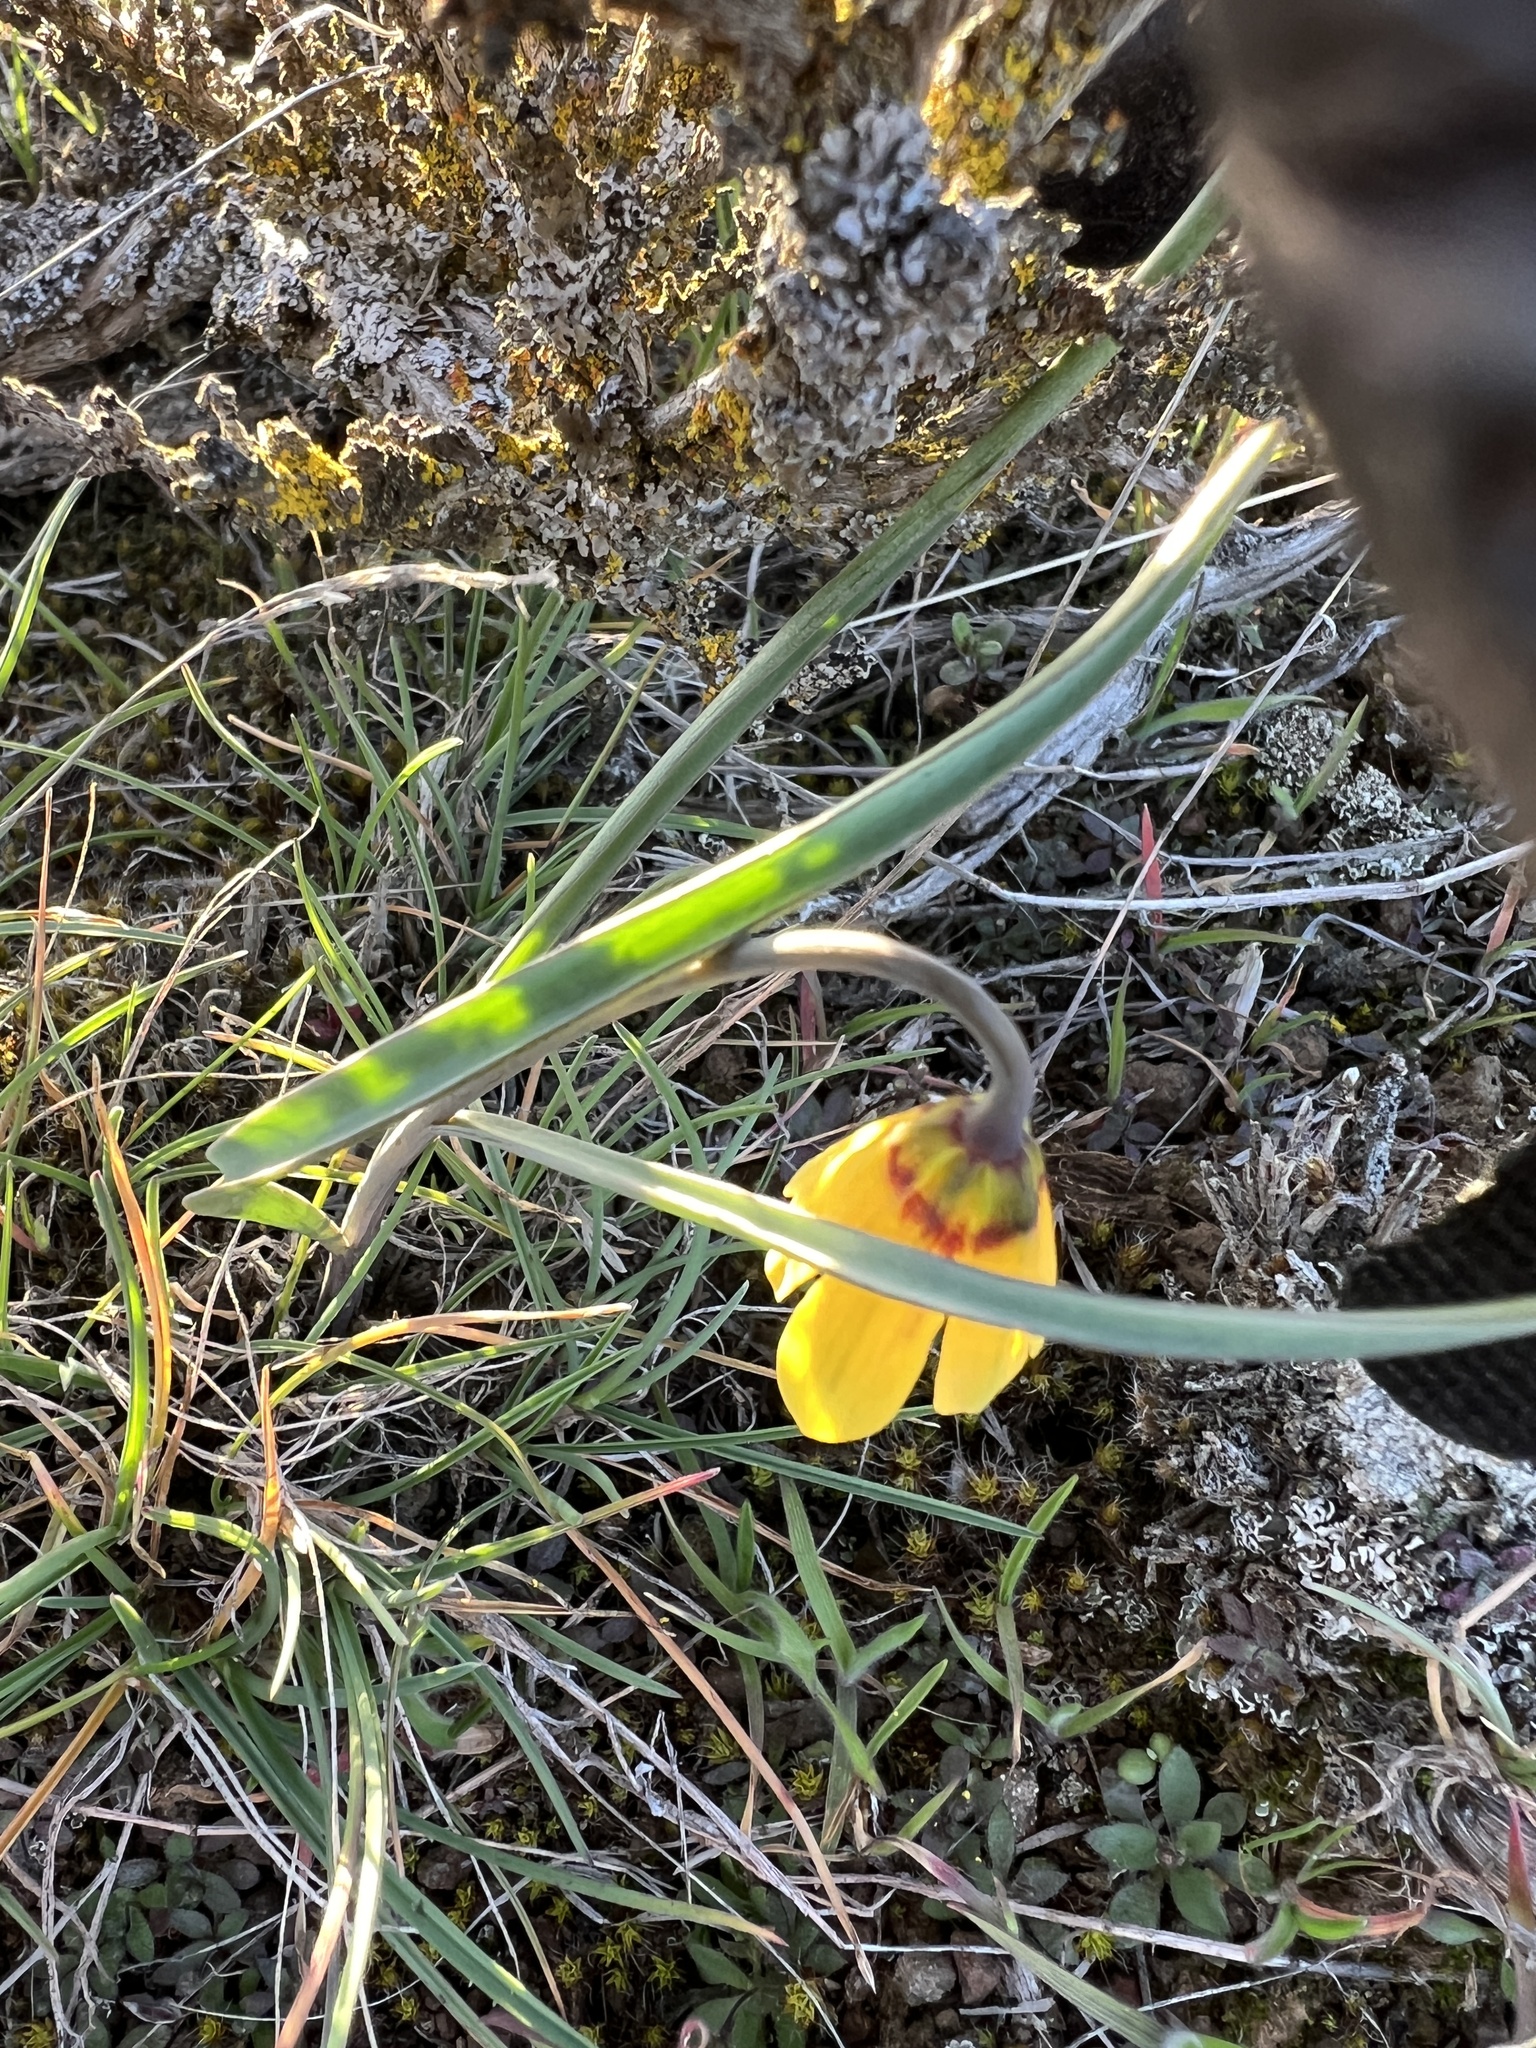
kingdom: Plantae
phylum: Tracheophyta
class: Liliopsida
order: Liliales
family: Liliaceae
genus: Fritillaria
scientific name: Fritillaria pudica
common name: Yellow fritillary
